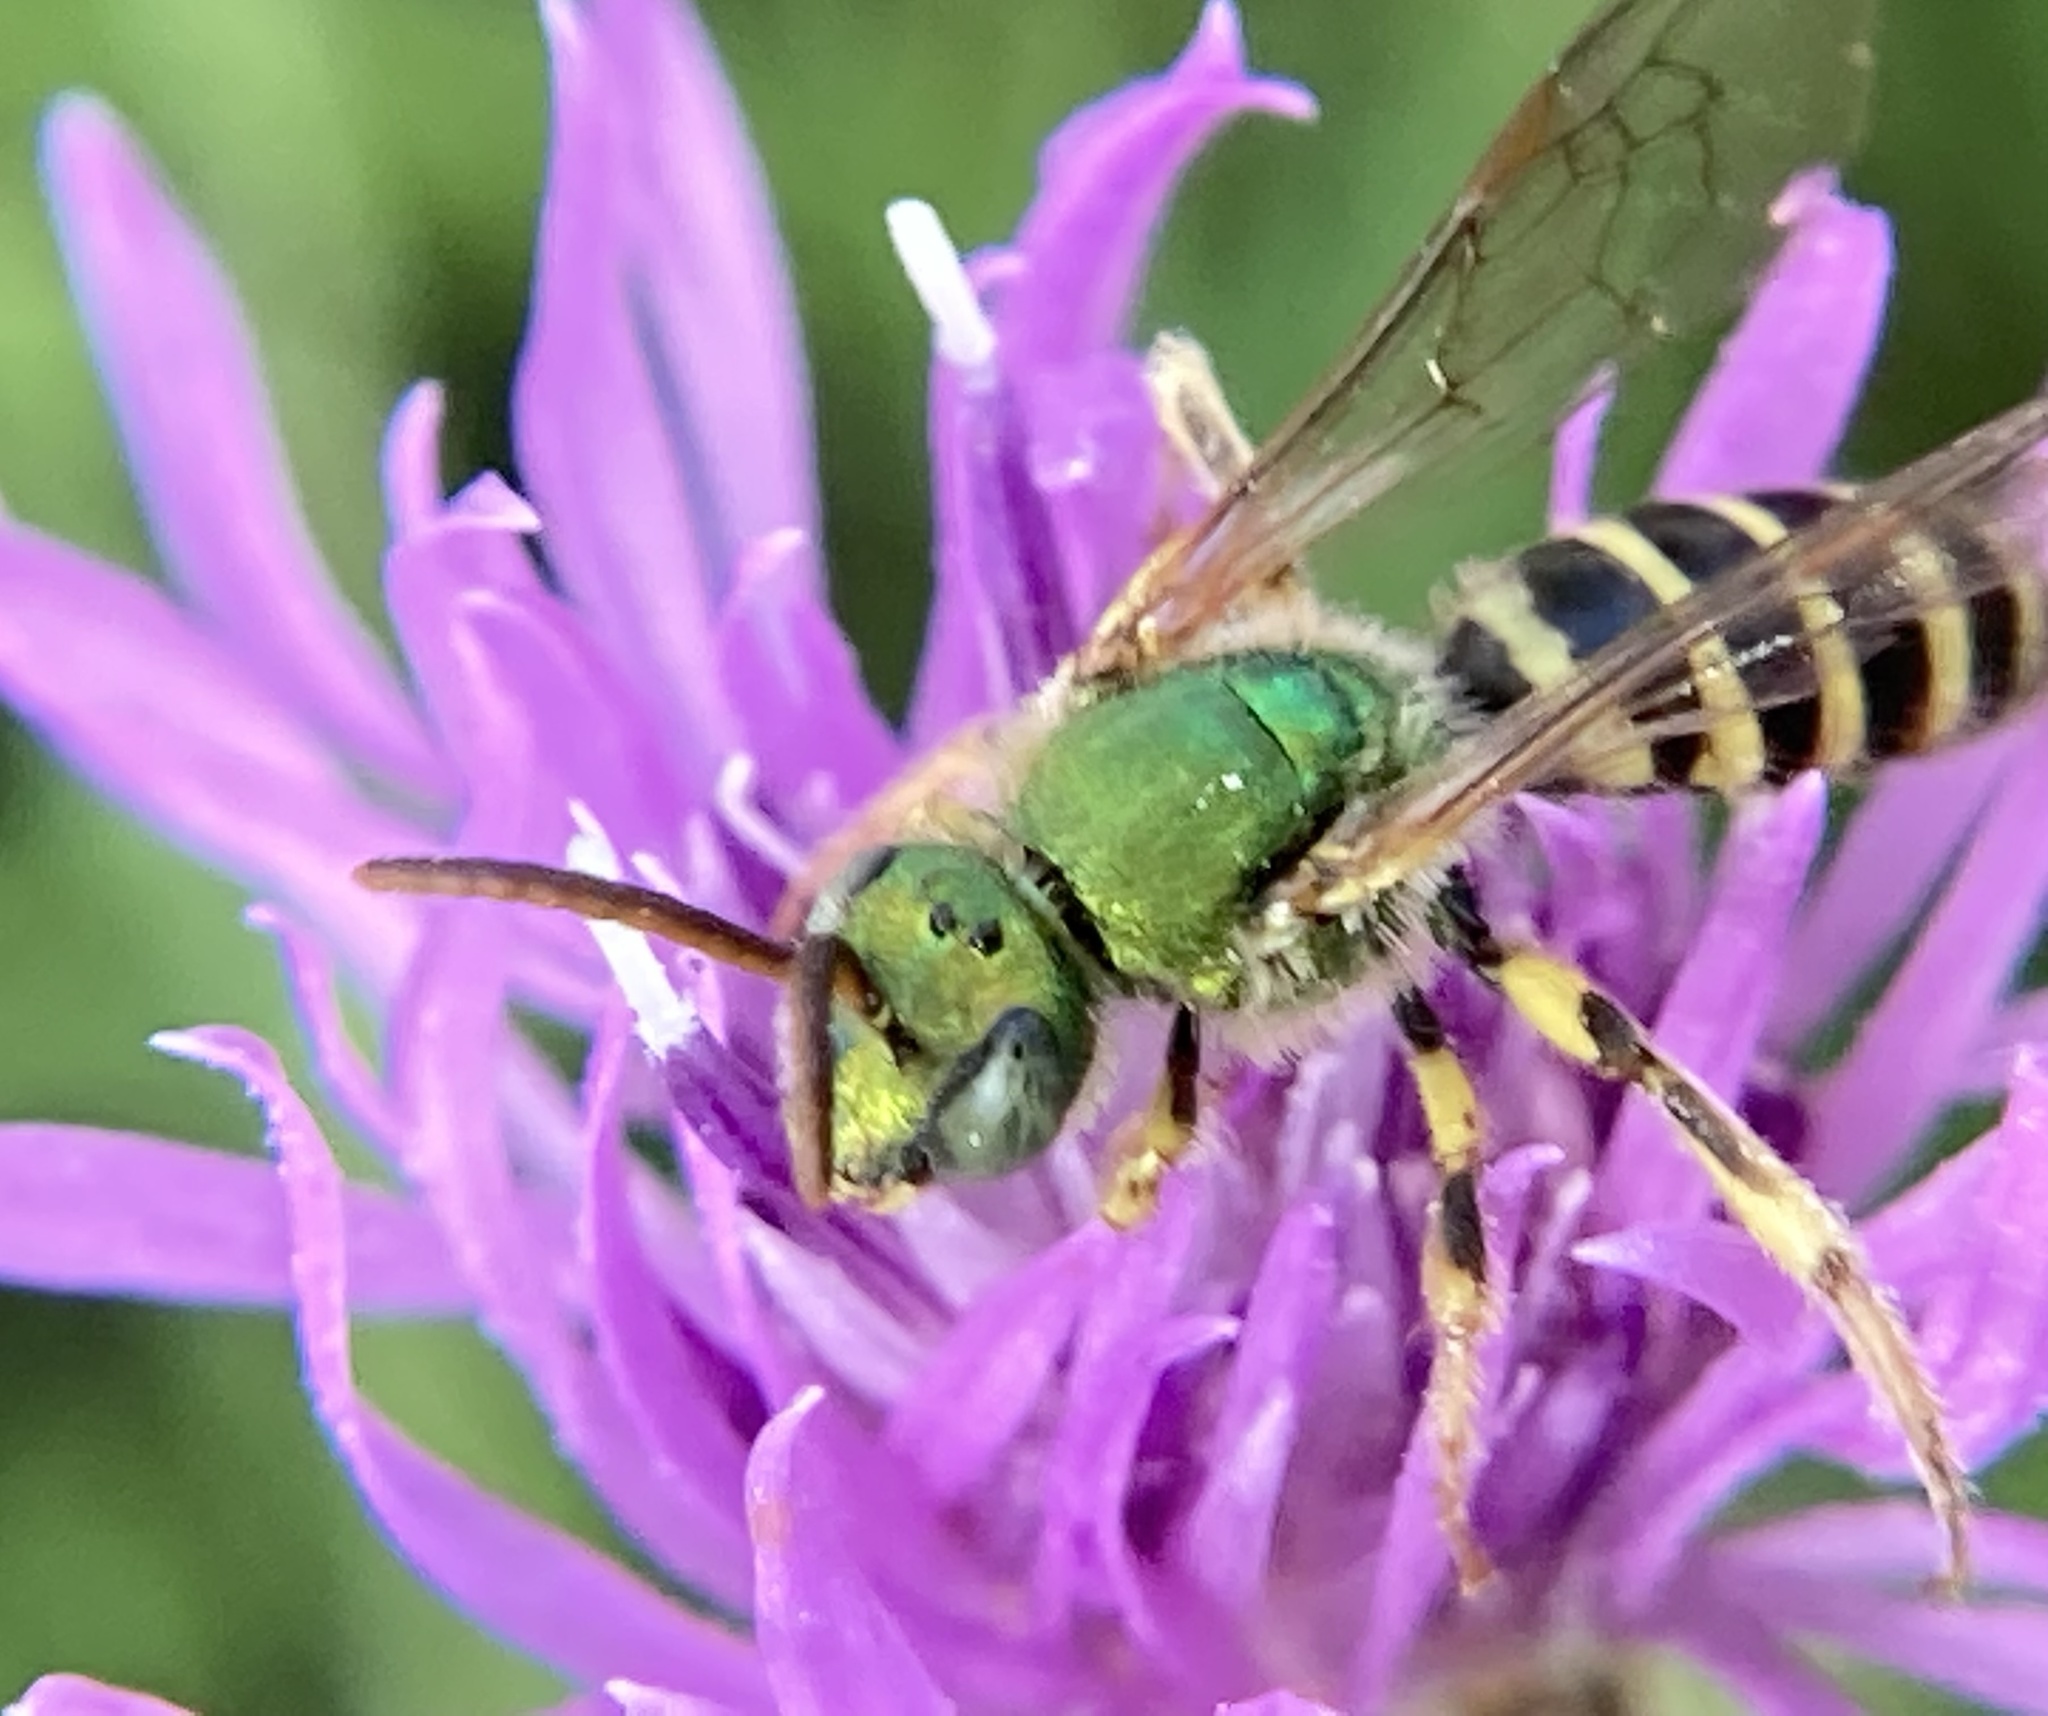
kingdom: Animalia
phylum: Arthropoda
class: Insecta
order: Hymenoptera
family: Halictidae
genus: Agapostemon
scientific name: Agapostemon
